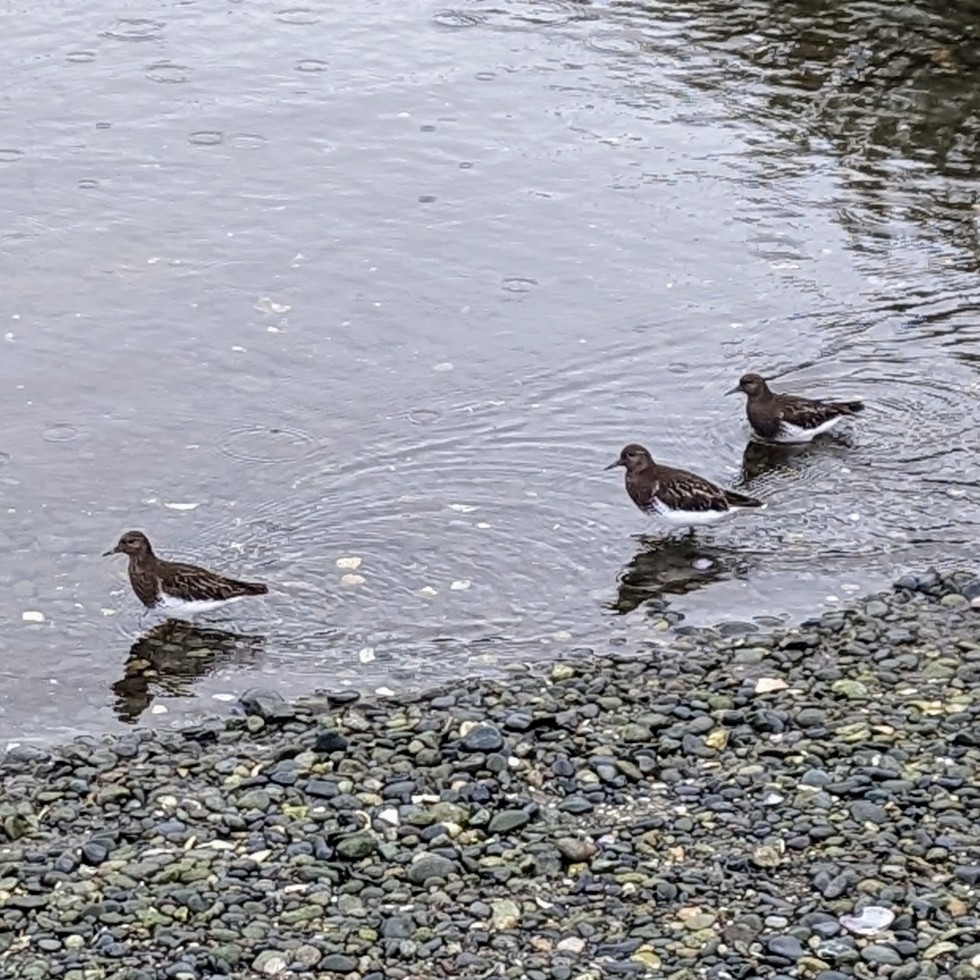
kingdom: Animalia
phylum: Chordata
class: Aves
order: Charadriiformes
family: Scolopacidae
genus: Arenaria
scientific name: Arenaria melanocephala
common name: Black turnstone
